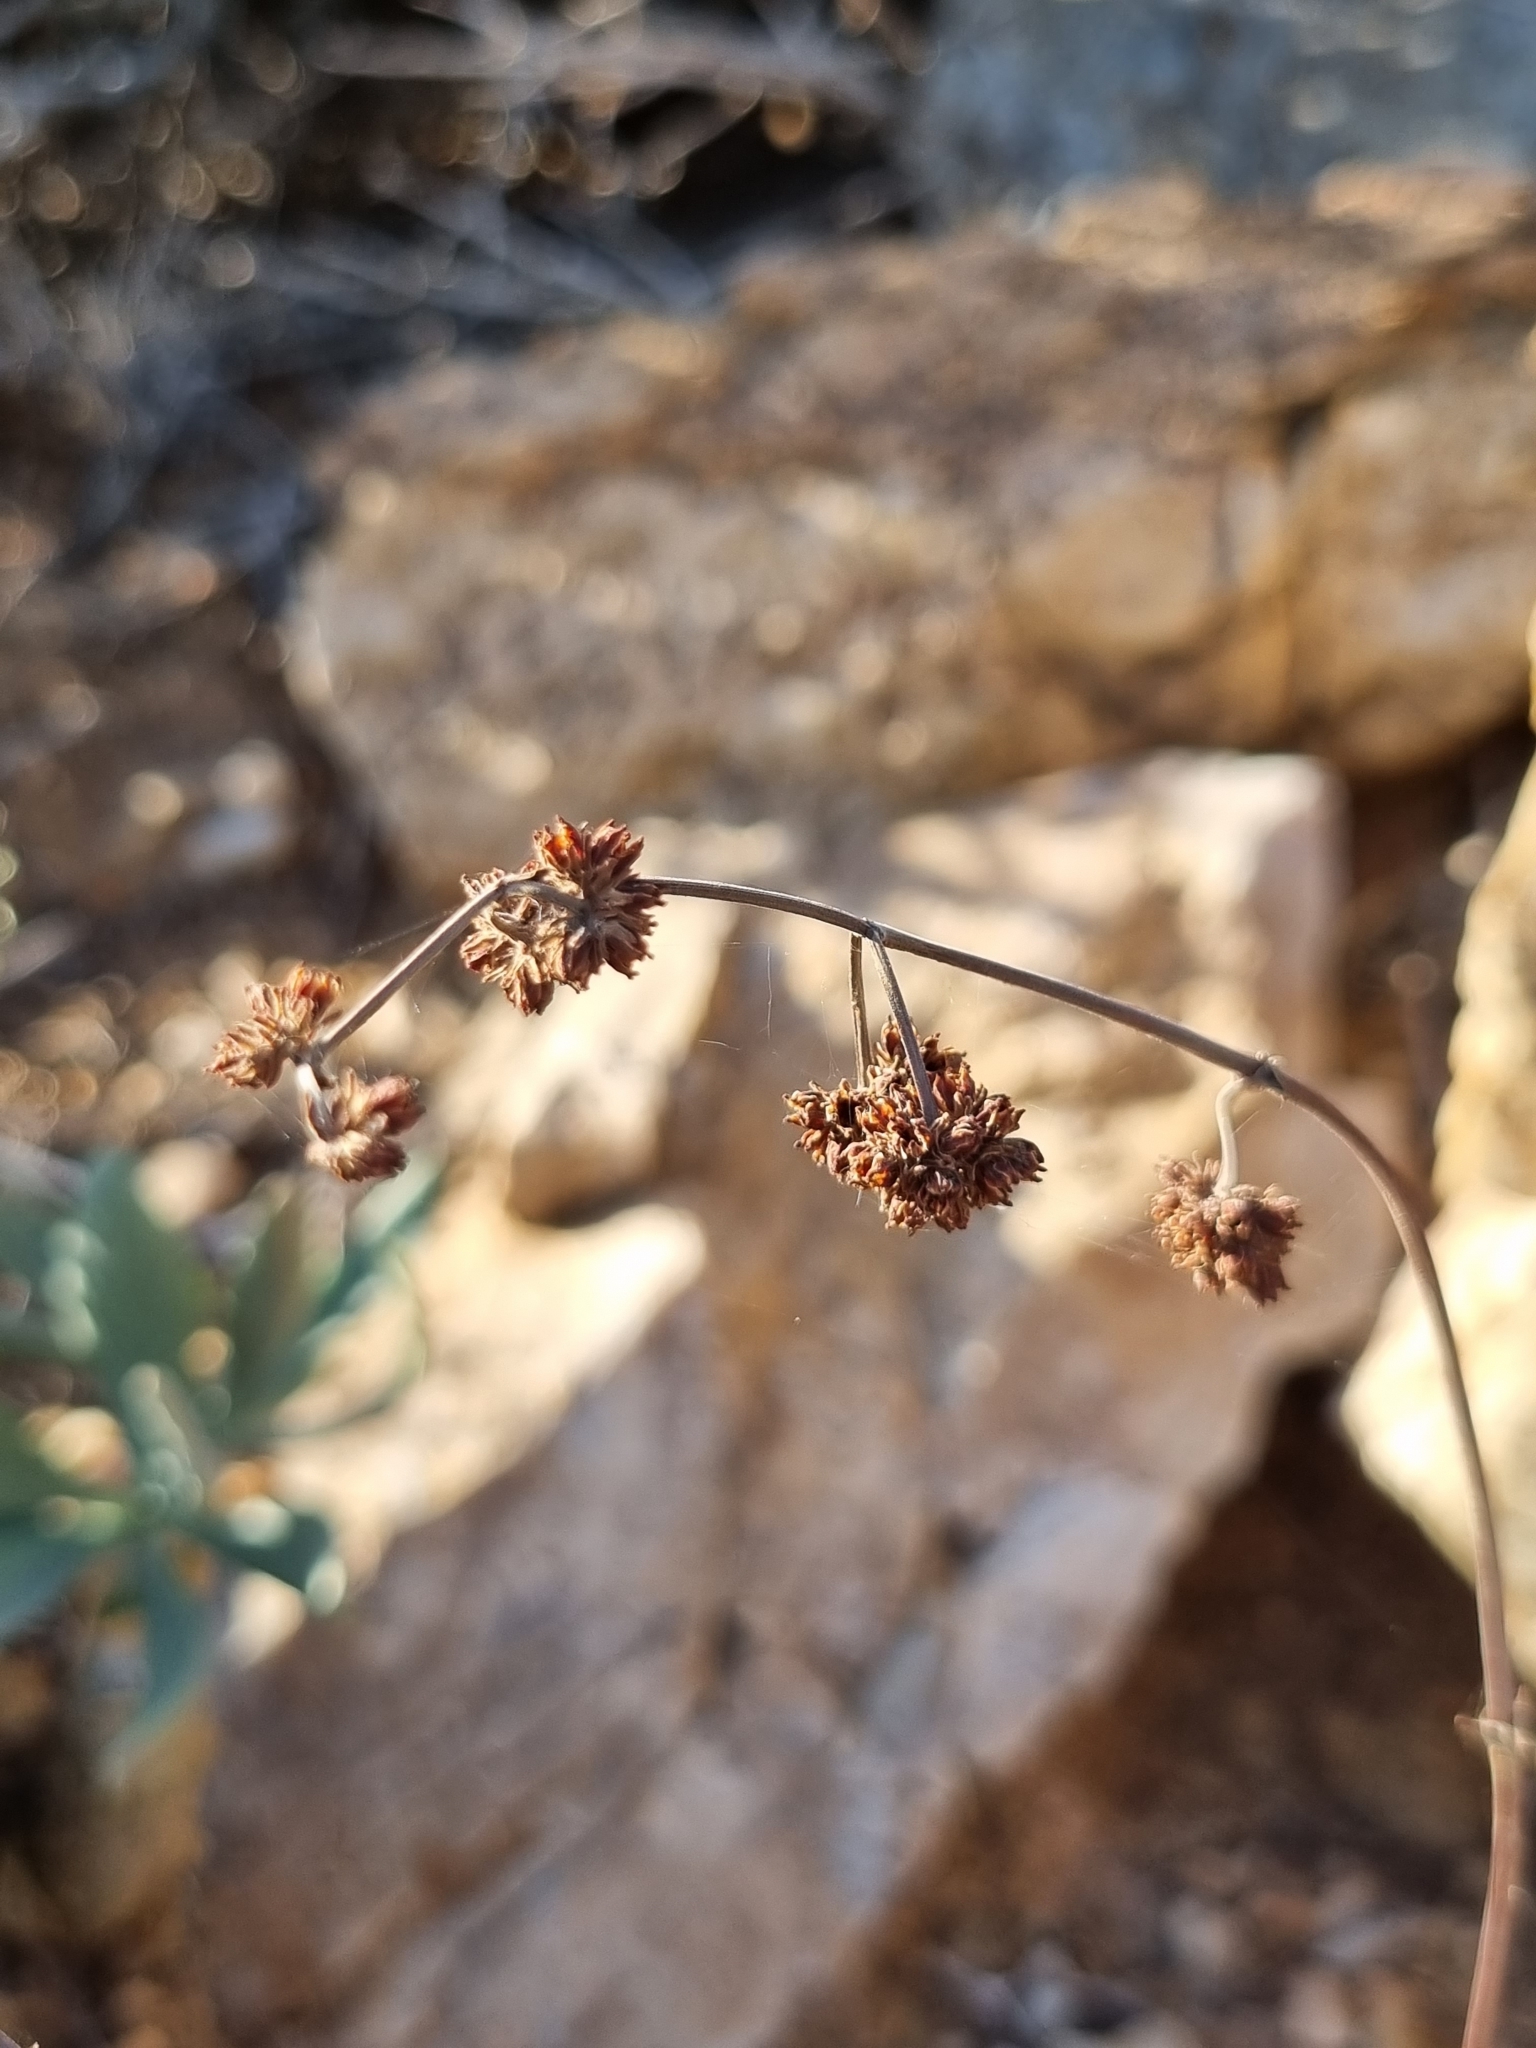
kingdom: Plantae
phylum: Tracheophyta
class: Magnoliopsida
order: Saxifragales
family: Crassulaceae
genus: Crassula
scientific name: Crassula subacaulis
